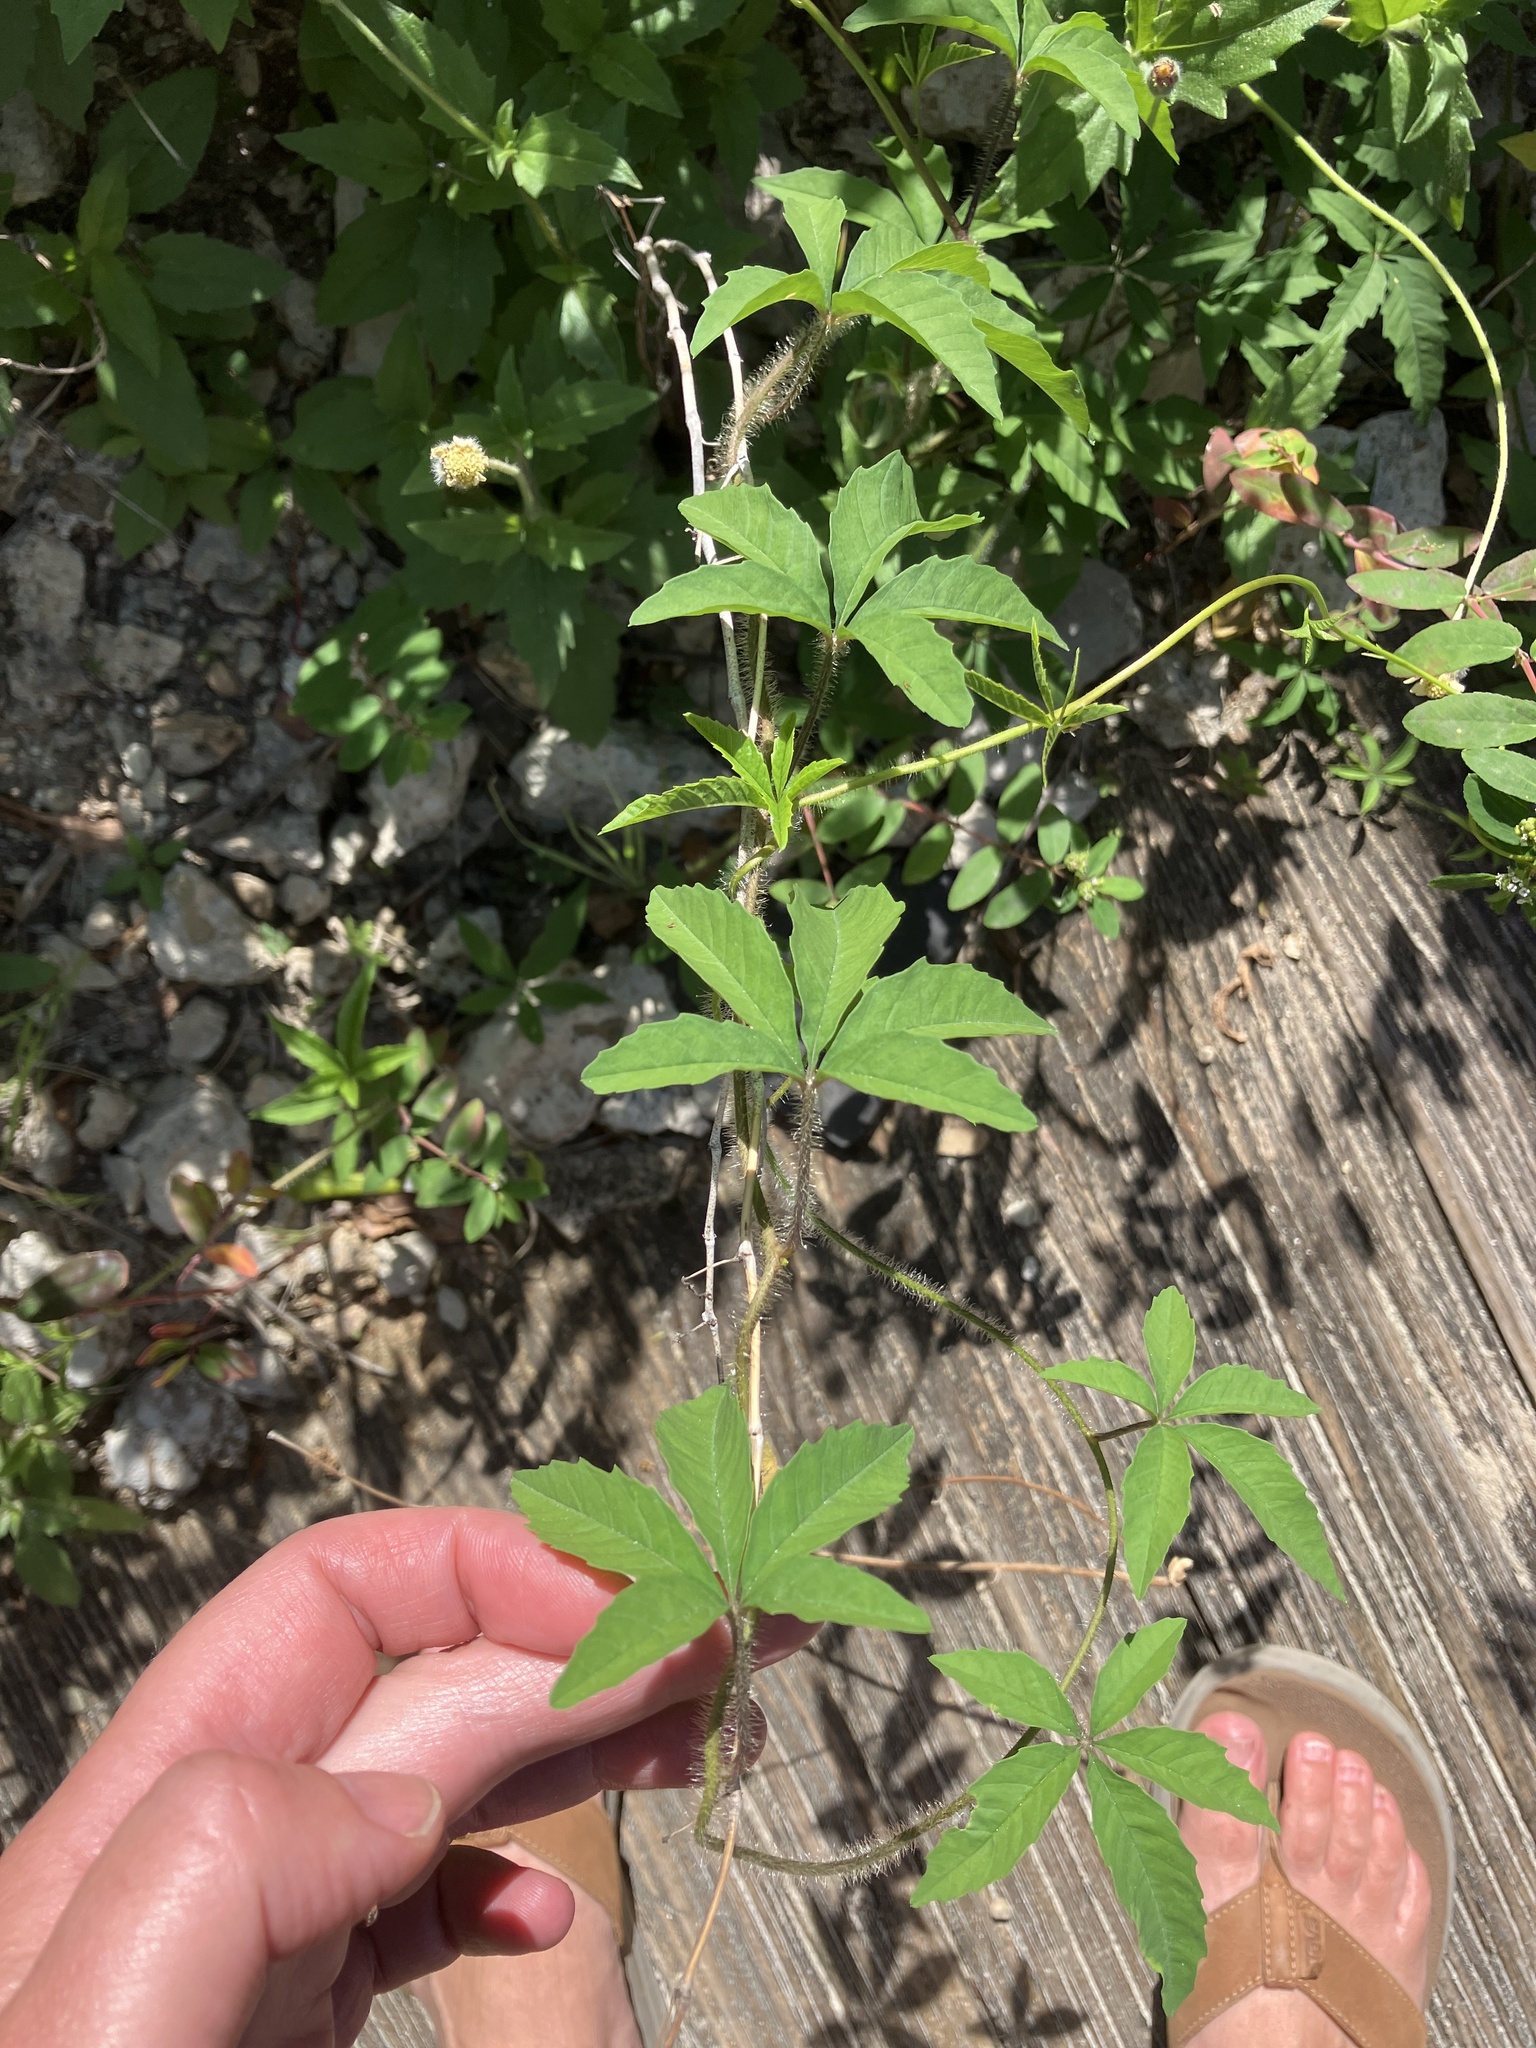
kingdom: Plantae
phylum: Tracheophyta
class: Magnoliopsida
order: Solanales
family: Convolvulaceae
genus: Distimake
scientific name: Distimake quinquefolius
